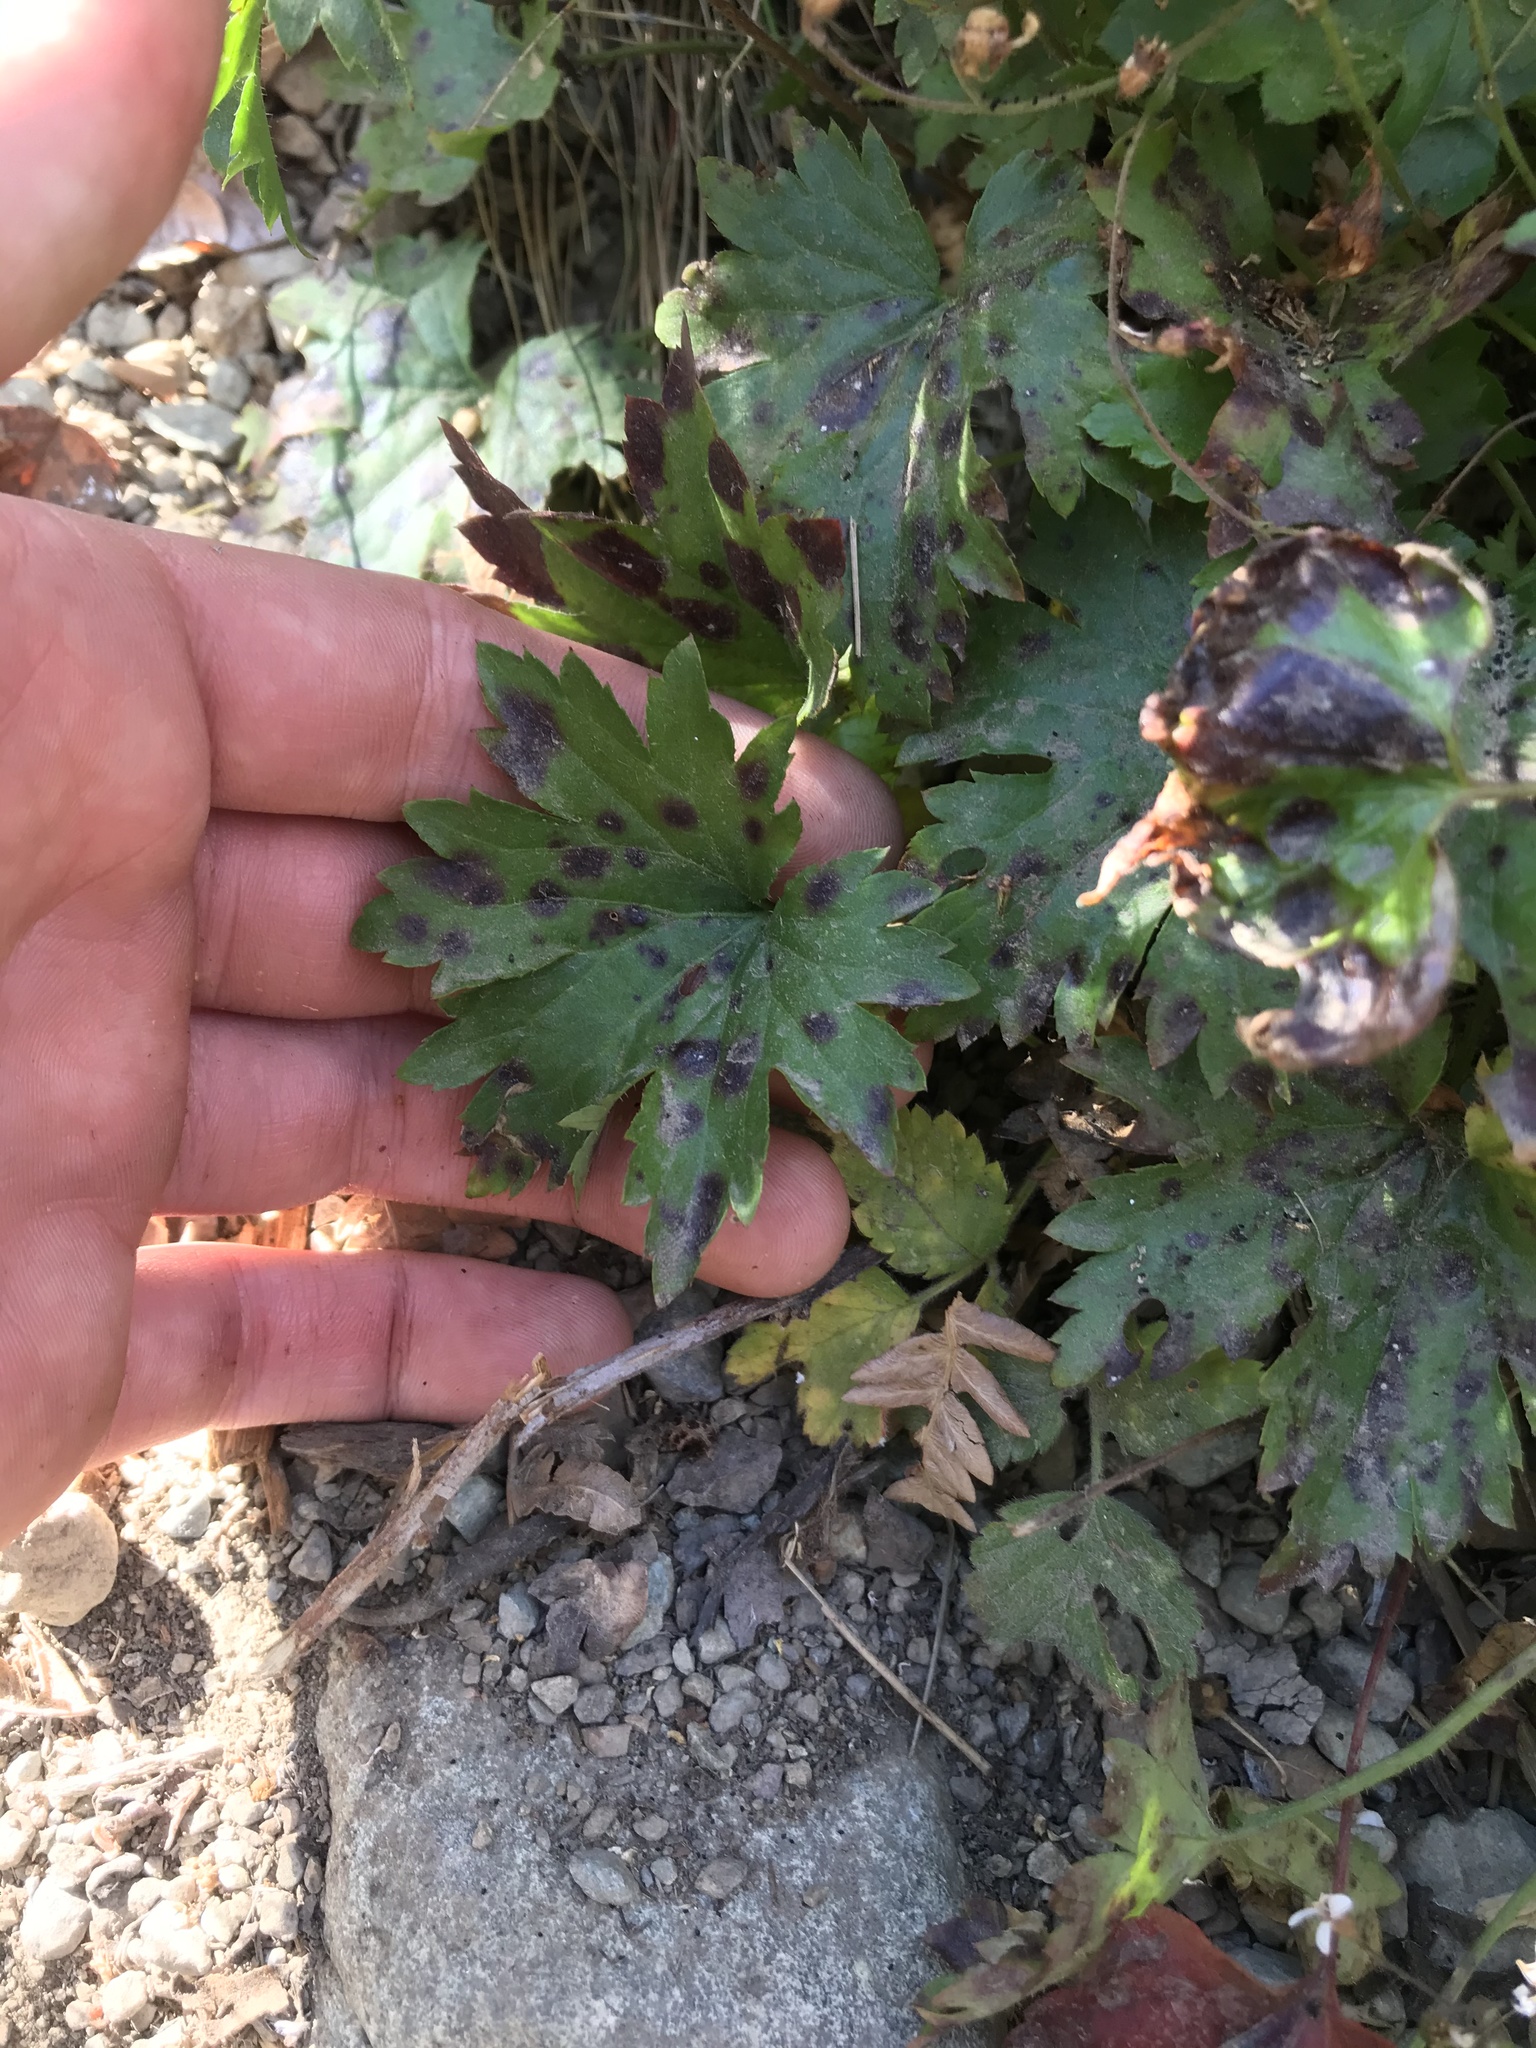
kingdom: Plantae
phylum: Tracheophyta
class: Magnoliopsida
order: Saxifragales
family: Saxifragaceae
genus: Boykinia
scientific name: Boykinia occidentalis
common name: Coast boykinia
